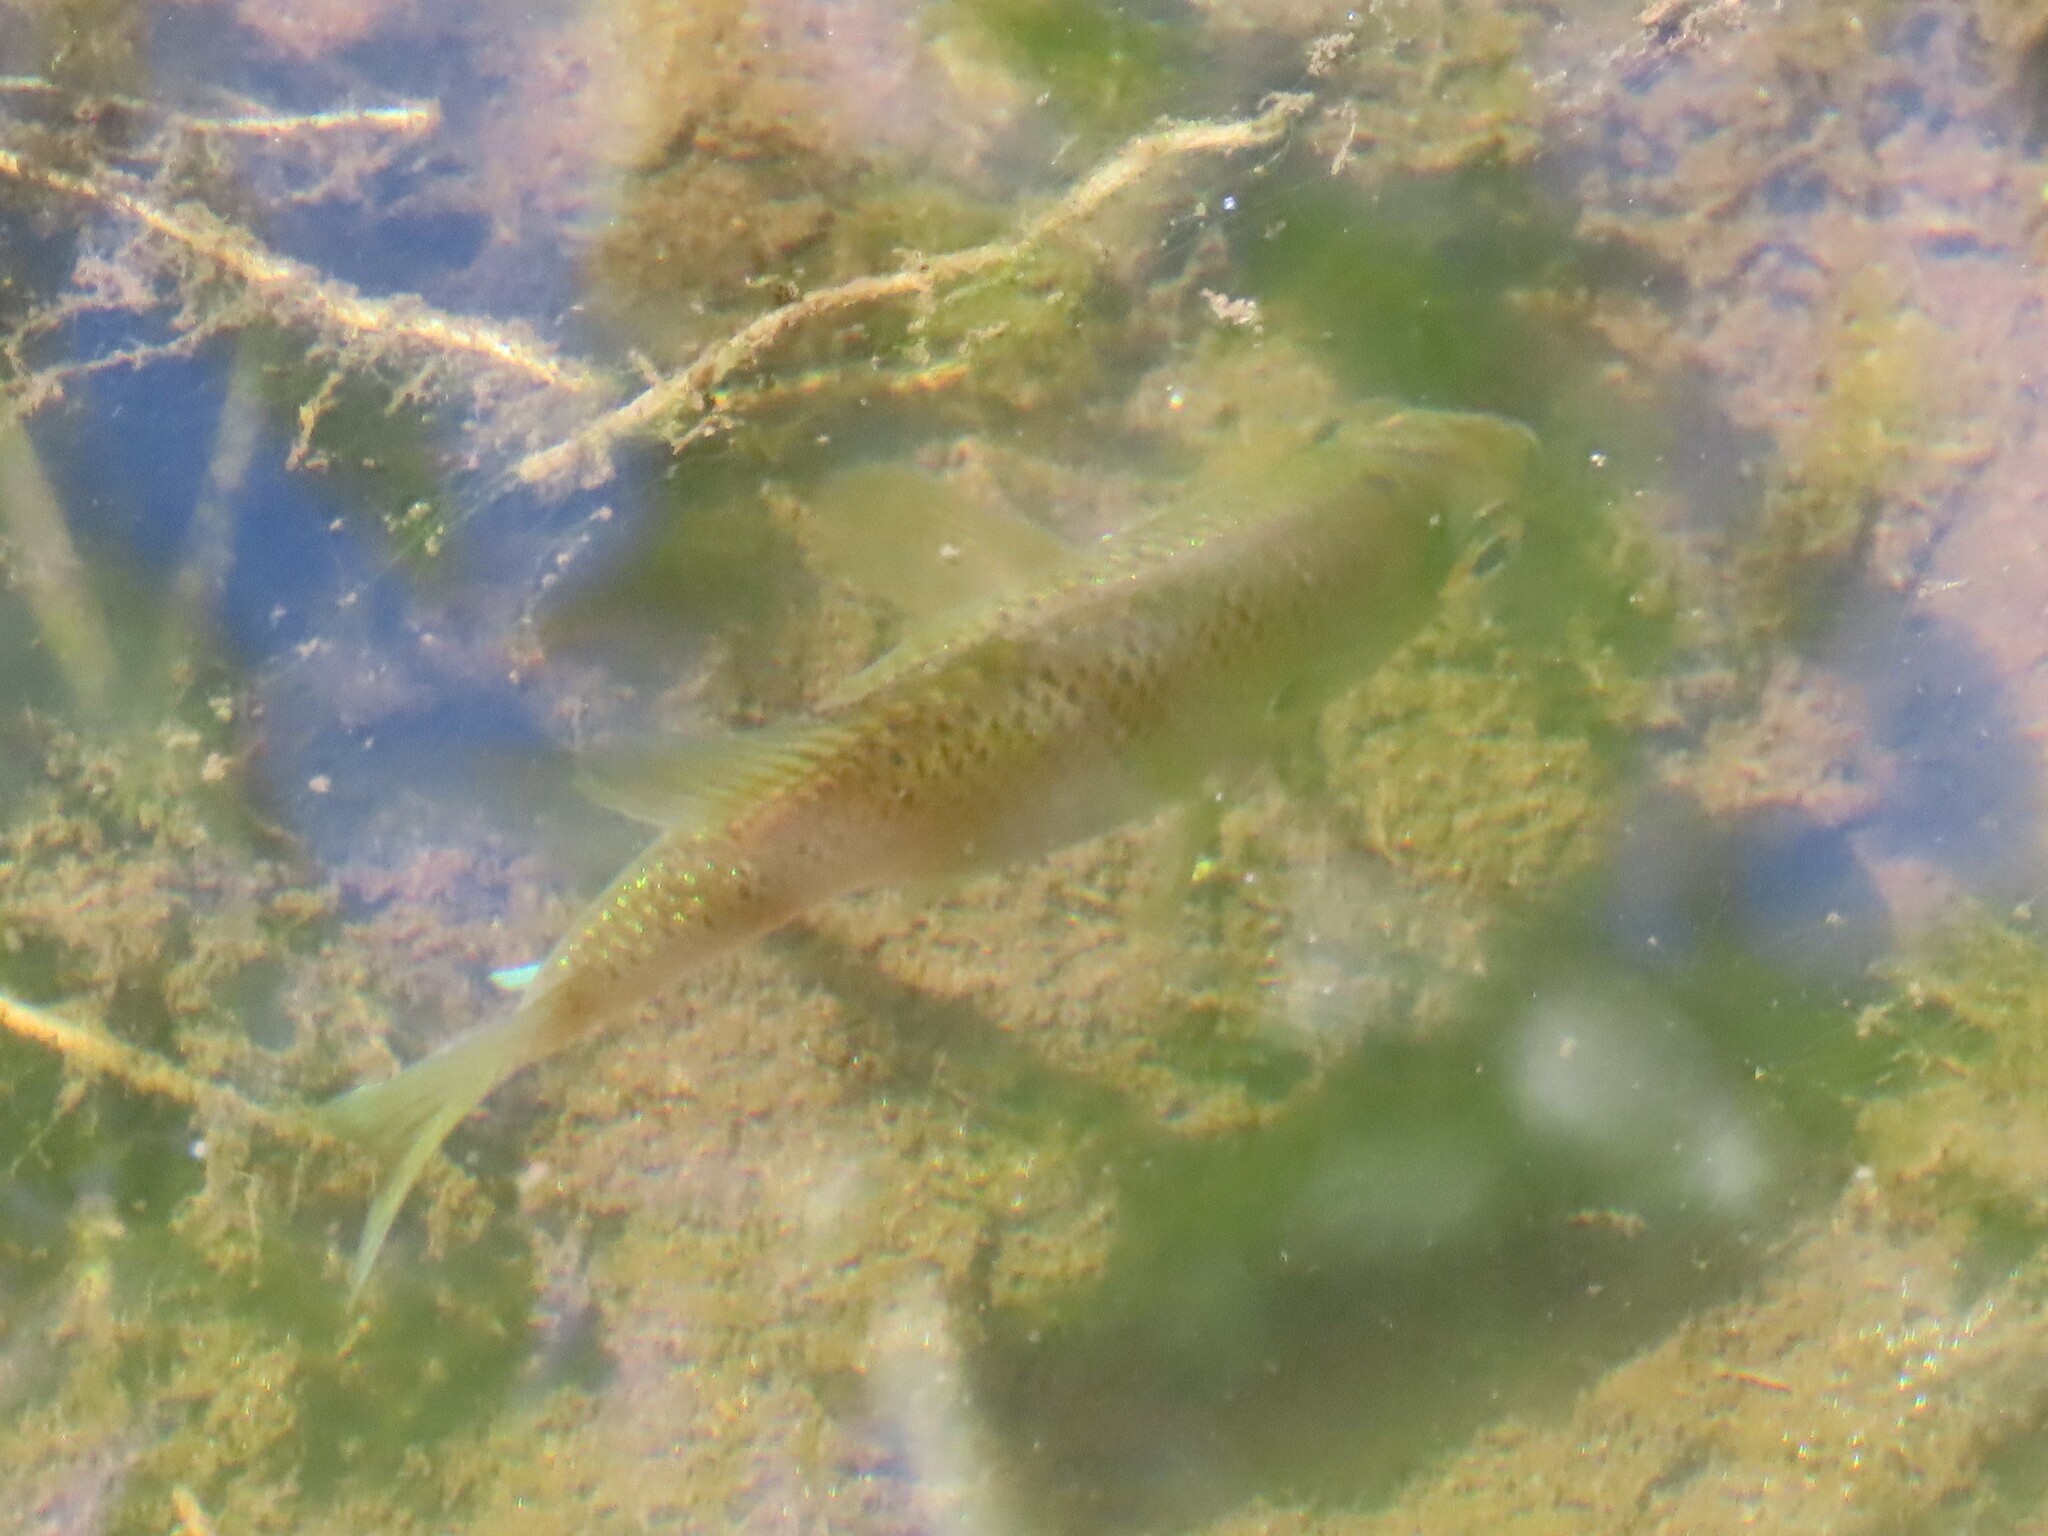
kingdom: Animalia
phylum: Chordata
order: Perciformes
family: Centrarchidae
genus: Lepomis
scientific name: Lepomis marginatus
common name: Dollar sunfish
